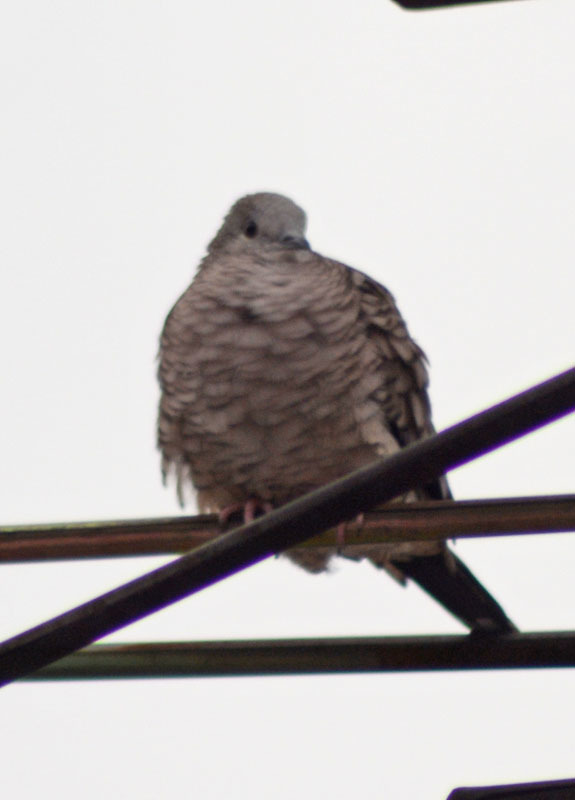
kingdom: Animalia
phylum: Chordata
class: Aves
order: Columbiformes
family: Columbidae
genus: Columbina
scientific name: Columbina inca
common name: Inca dove
